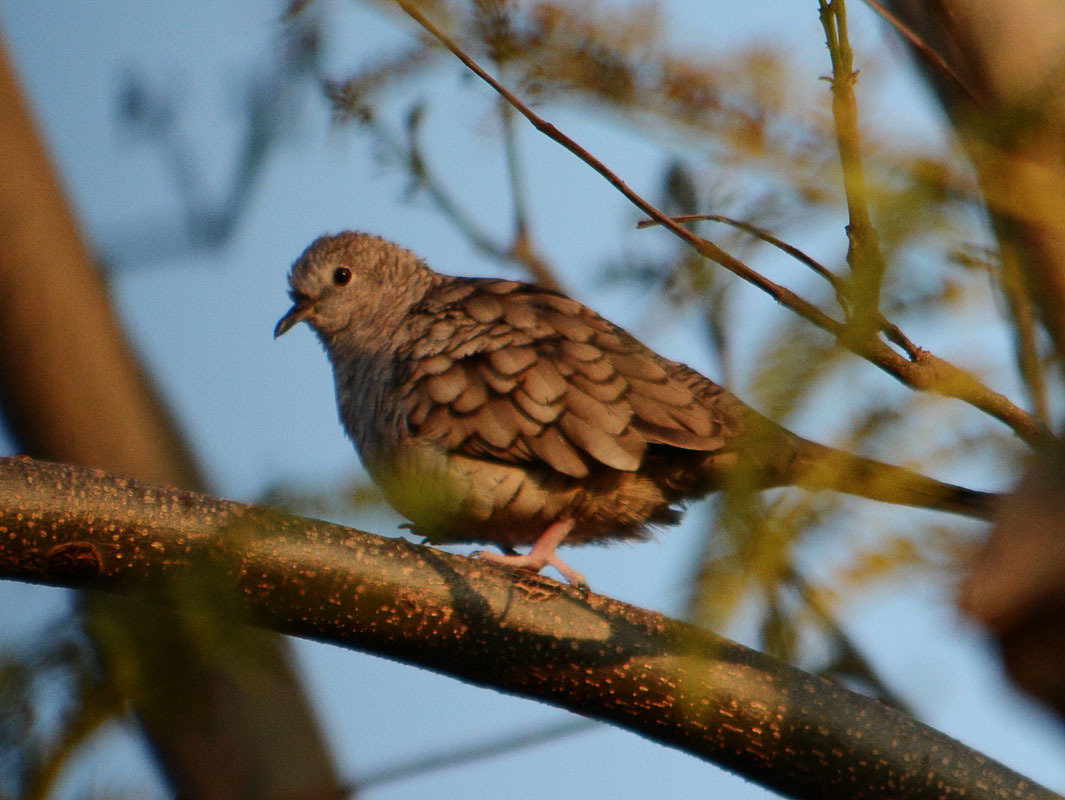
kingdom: Animalia
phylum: Chordata
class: Aves
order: Columbiformes
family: Columbidae
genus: Columbina
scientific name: Columbina inca
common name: Inca dove
